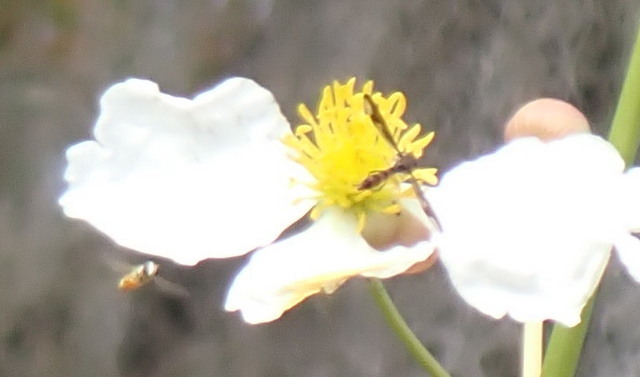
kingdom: Animalia
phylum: Arthropoda
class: Insecta
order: Diptera
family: Syrphidae
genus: Ocyptamus
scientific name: Ocyptamus fuscipennis
